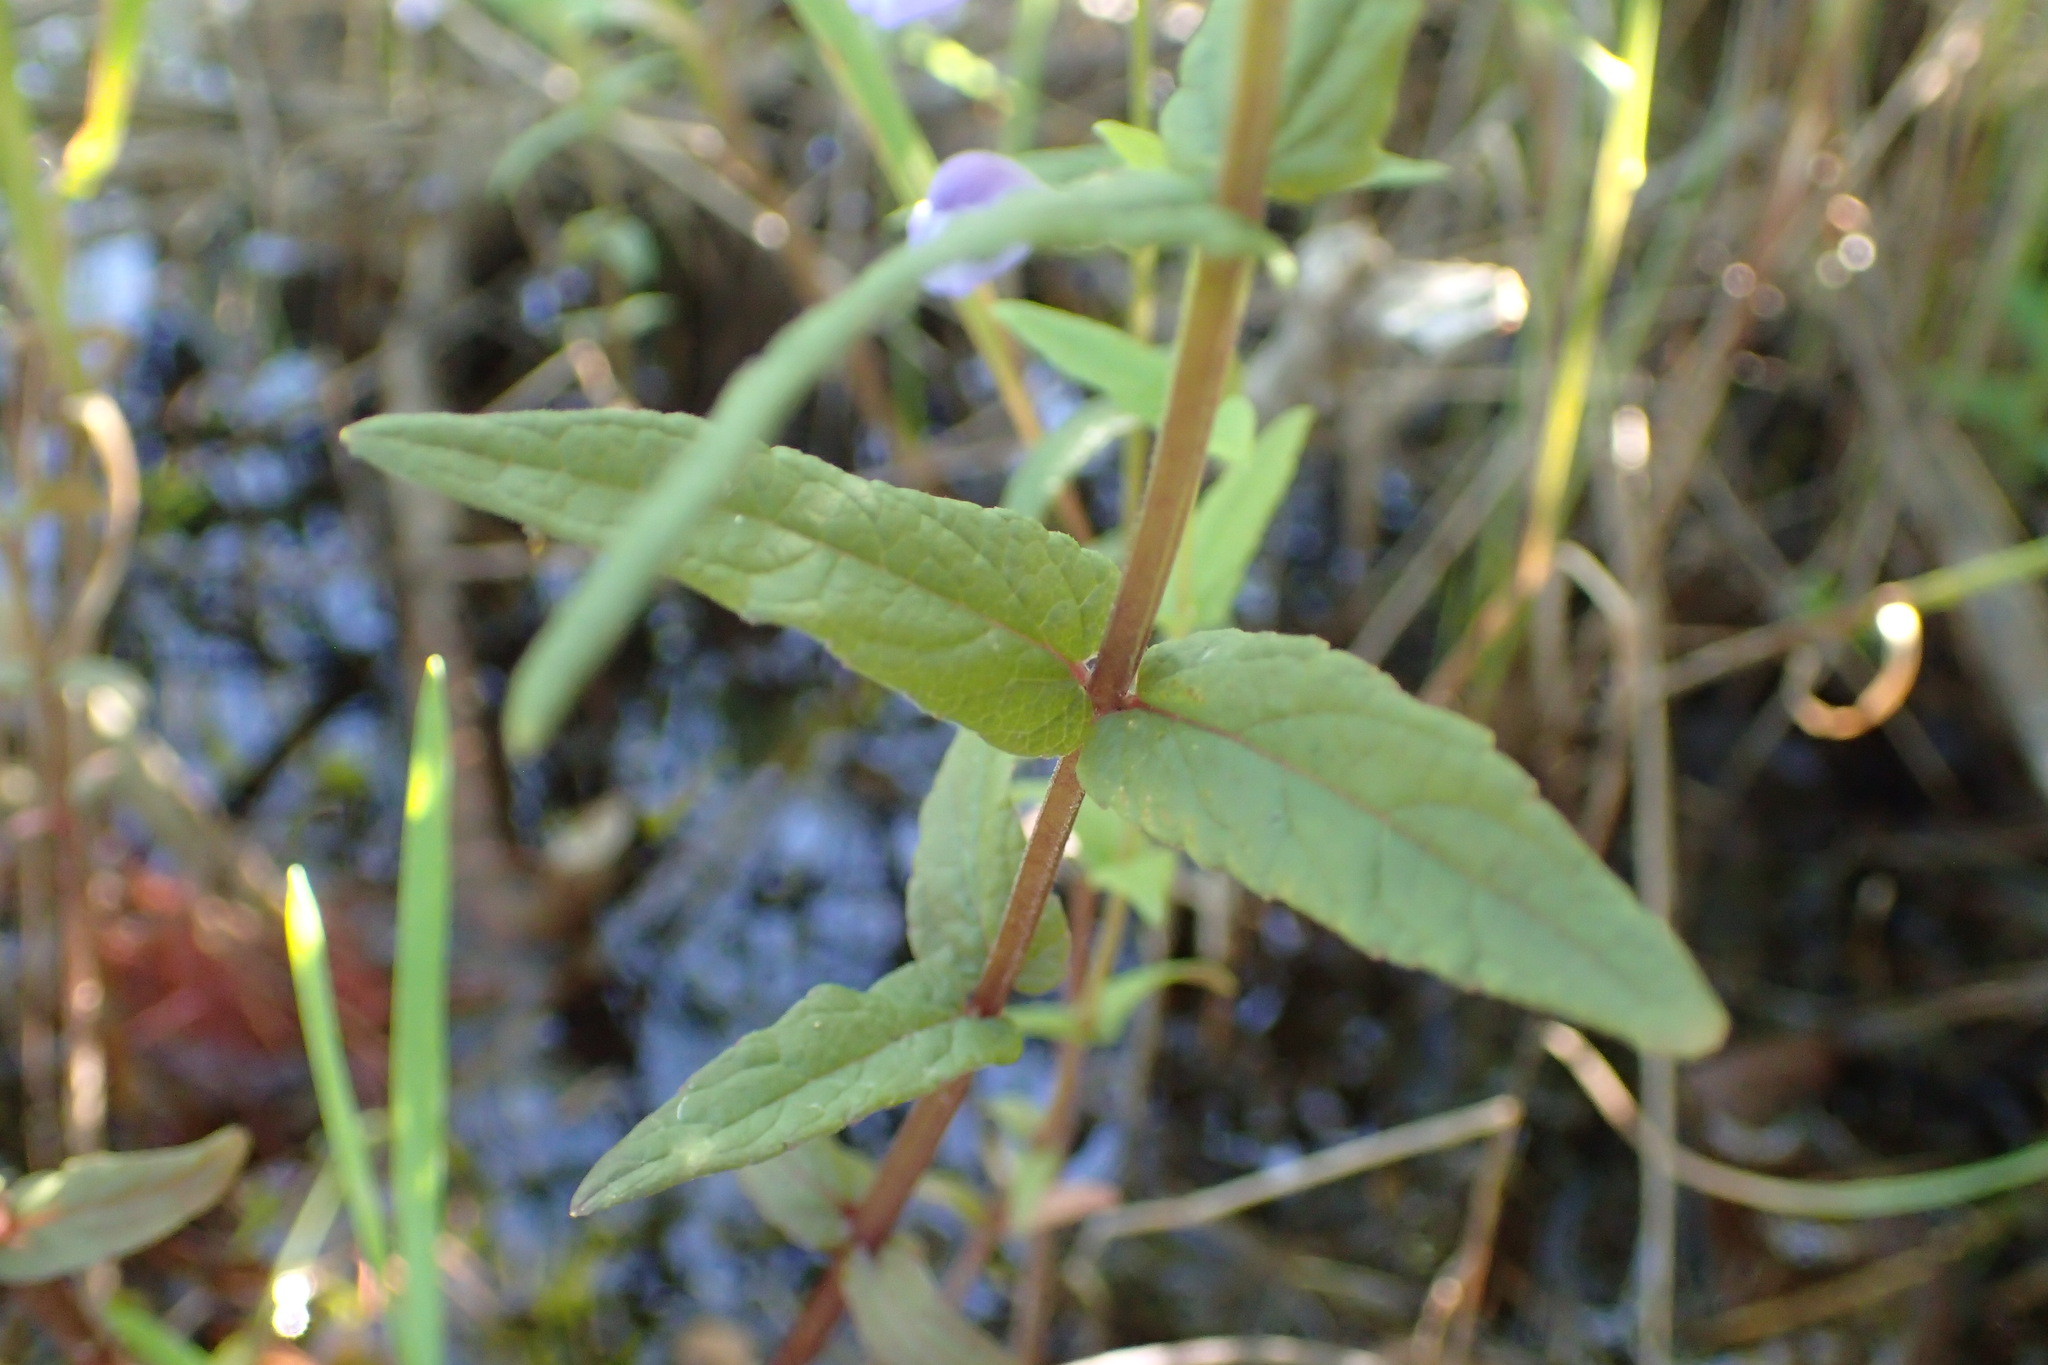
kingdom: Plantae
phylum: Tracheophyta
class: Magnoliopsida
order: Lamiales
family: Lamiaceae
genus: Scutellaria
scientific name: Scutellaria galericulata
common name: Skullcap
